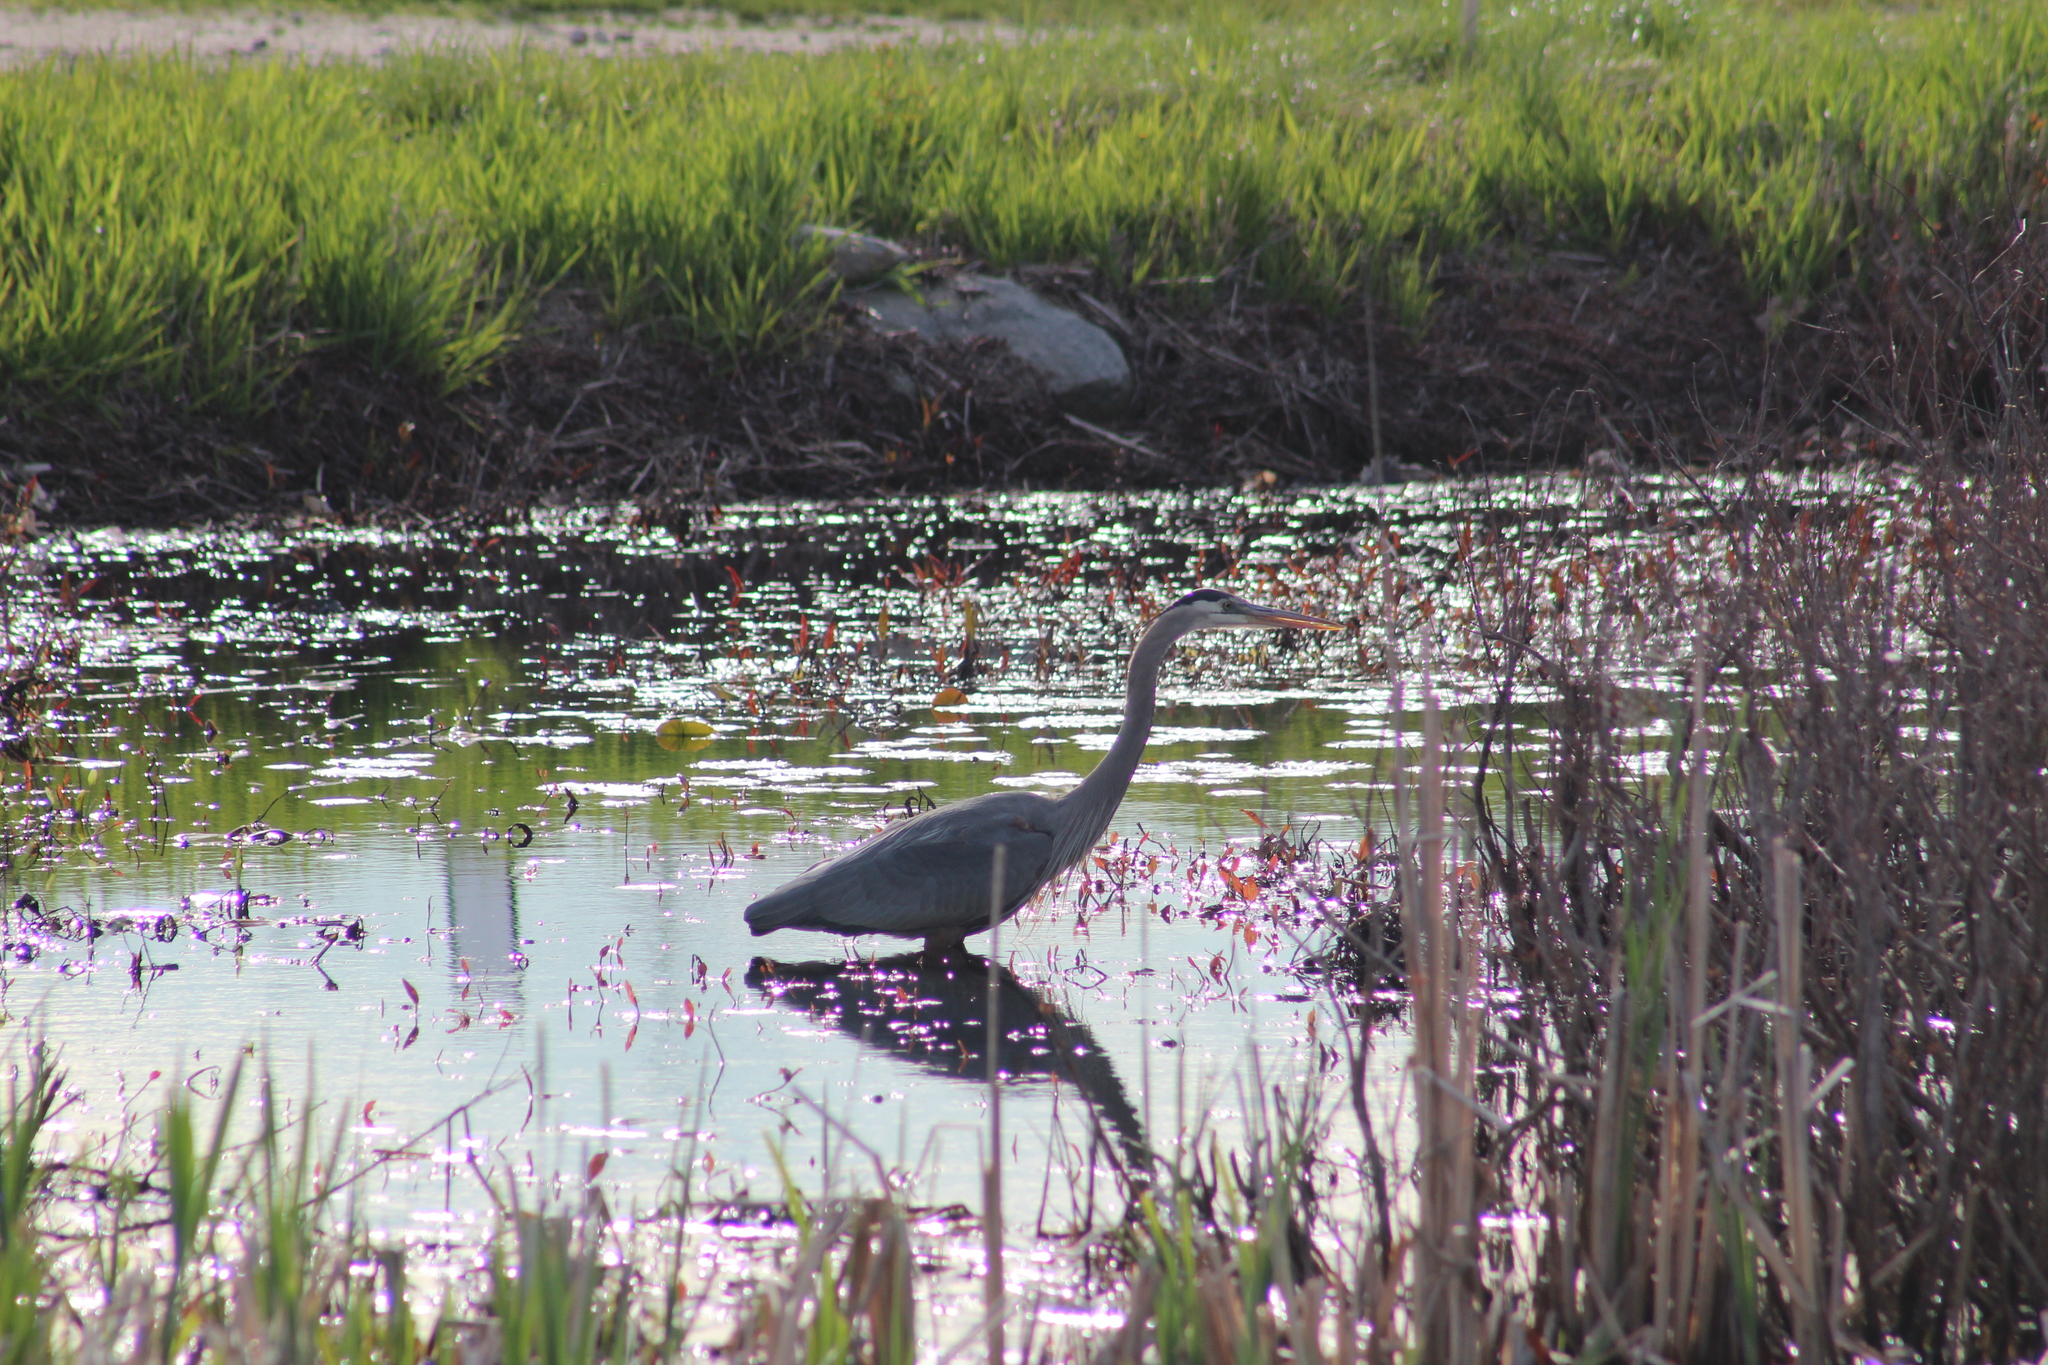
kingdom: Animalia
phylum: Chordata
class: Aves
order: Pelecaniformes
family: Ardeidae
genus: Ardea
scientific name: Ardea herodias
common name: Great blue heron
